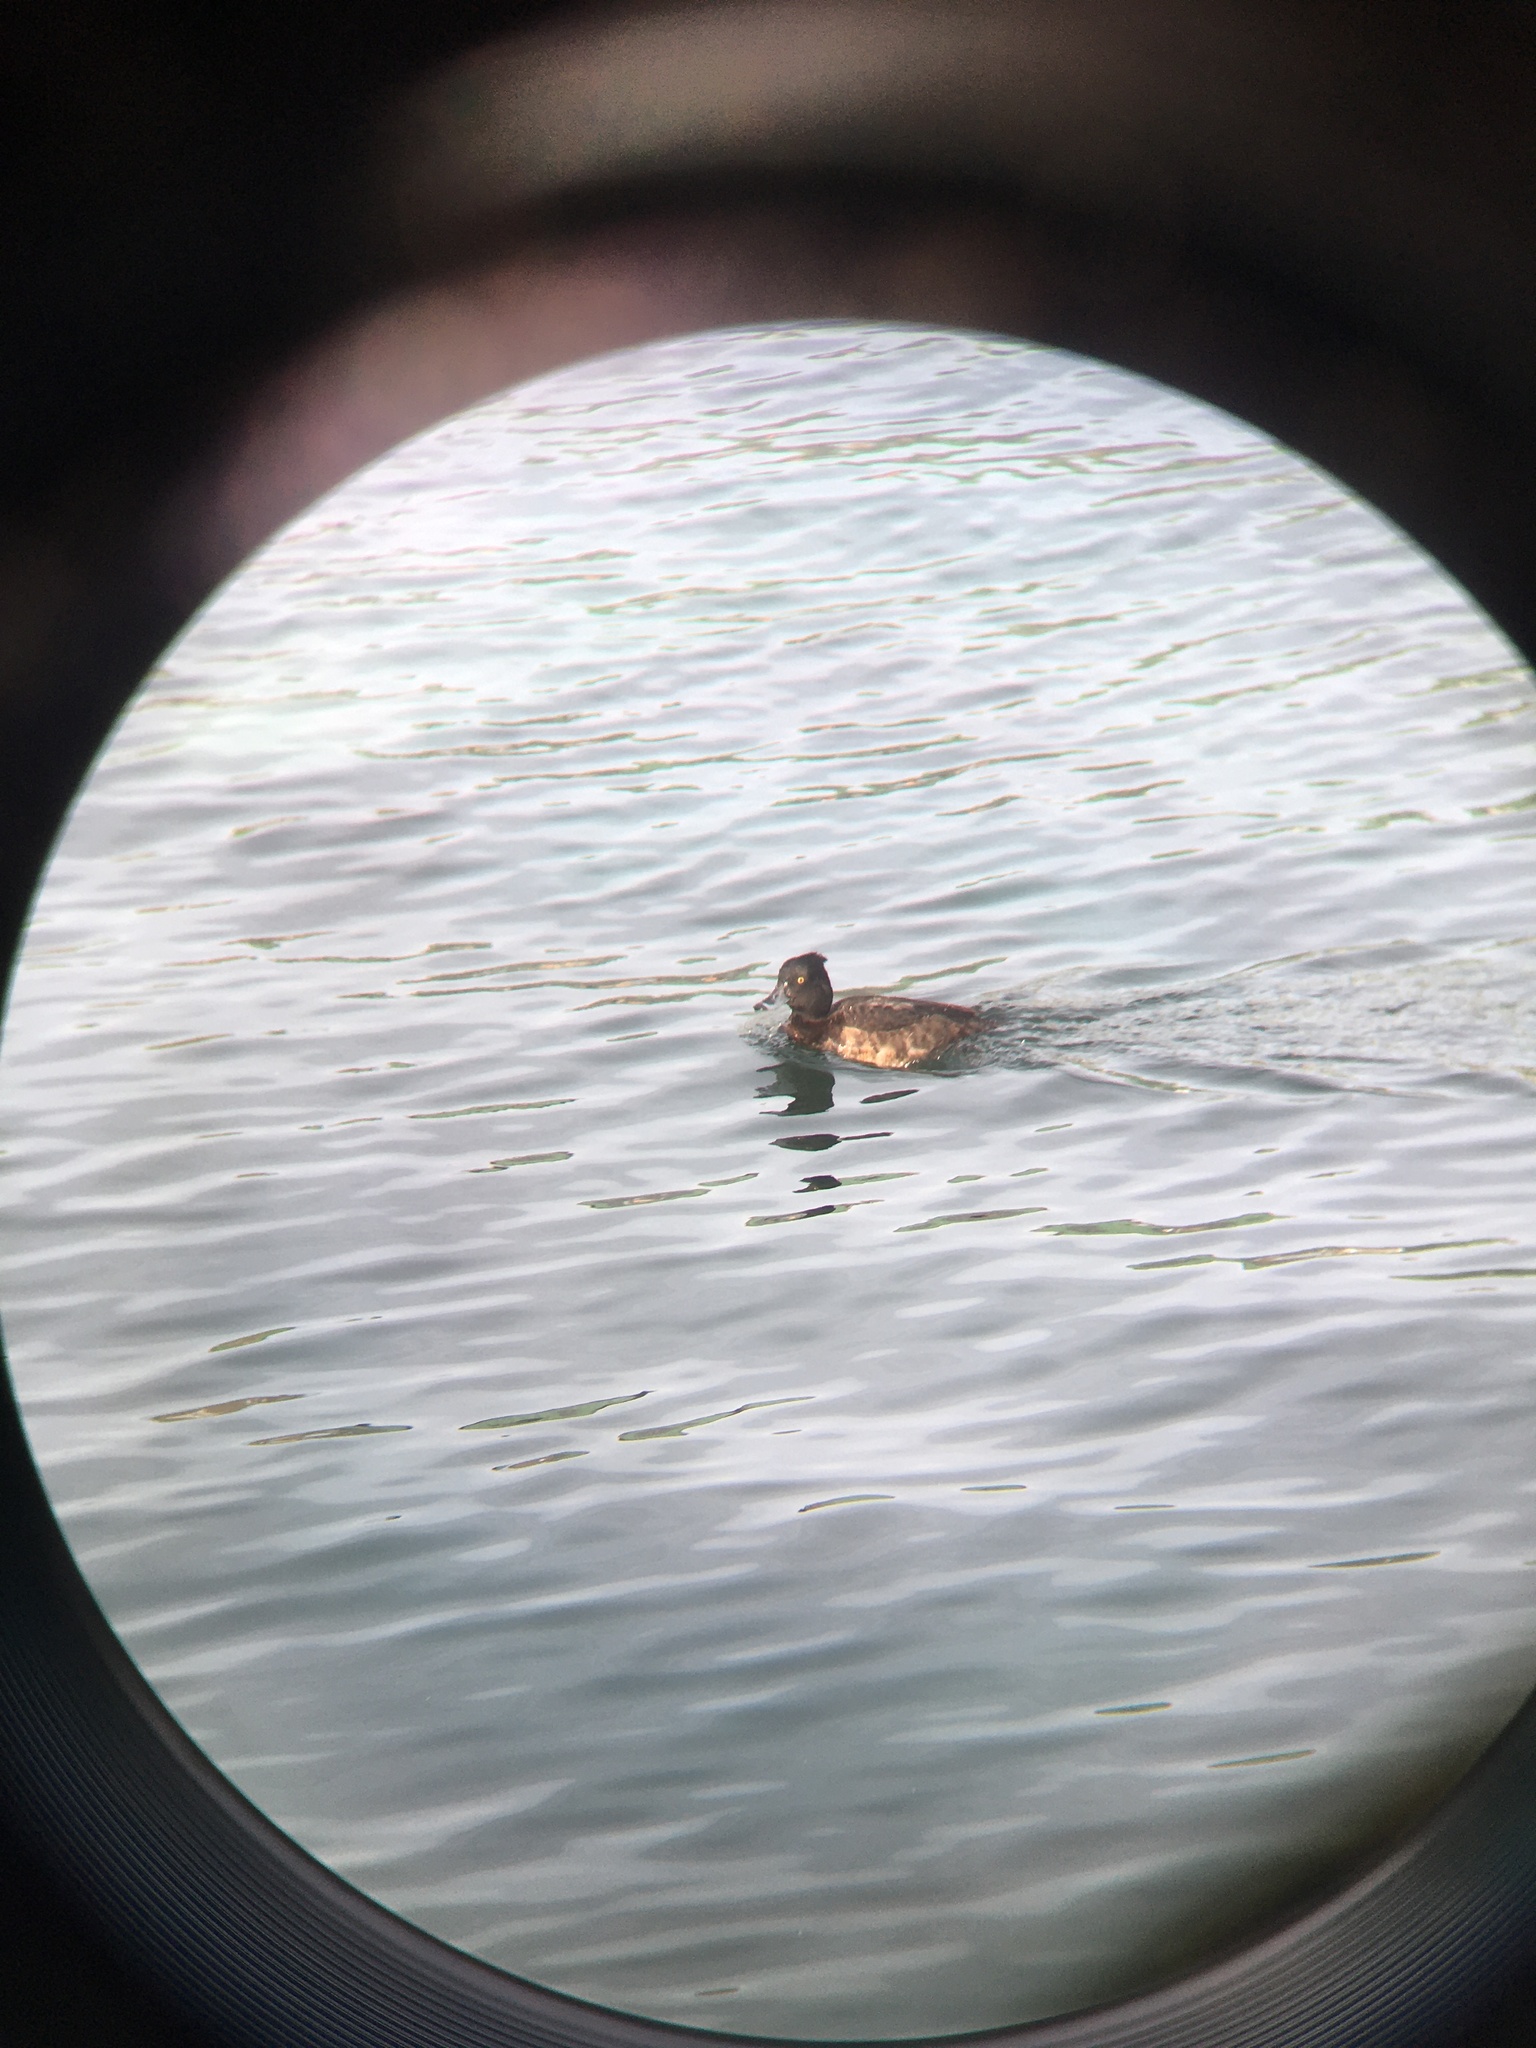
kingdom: Animalia
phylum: Chordata
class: Aves
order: Anseriformes
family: Anatidae
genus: Aythya
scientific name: Aythya fuligula
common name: Tufted duck
